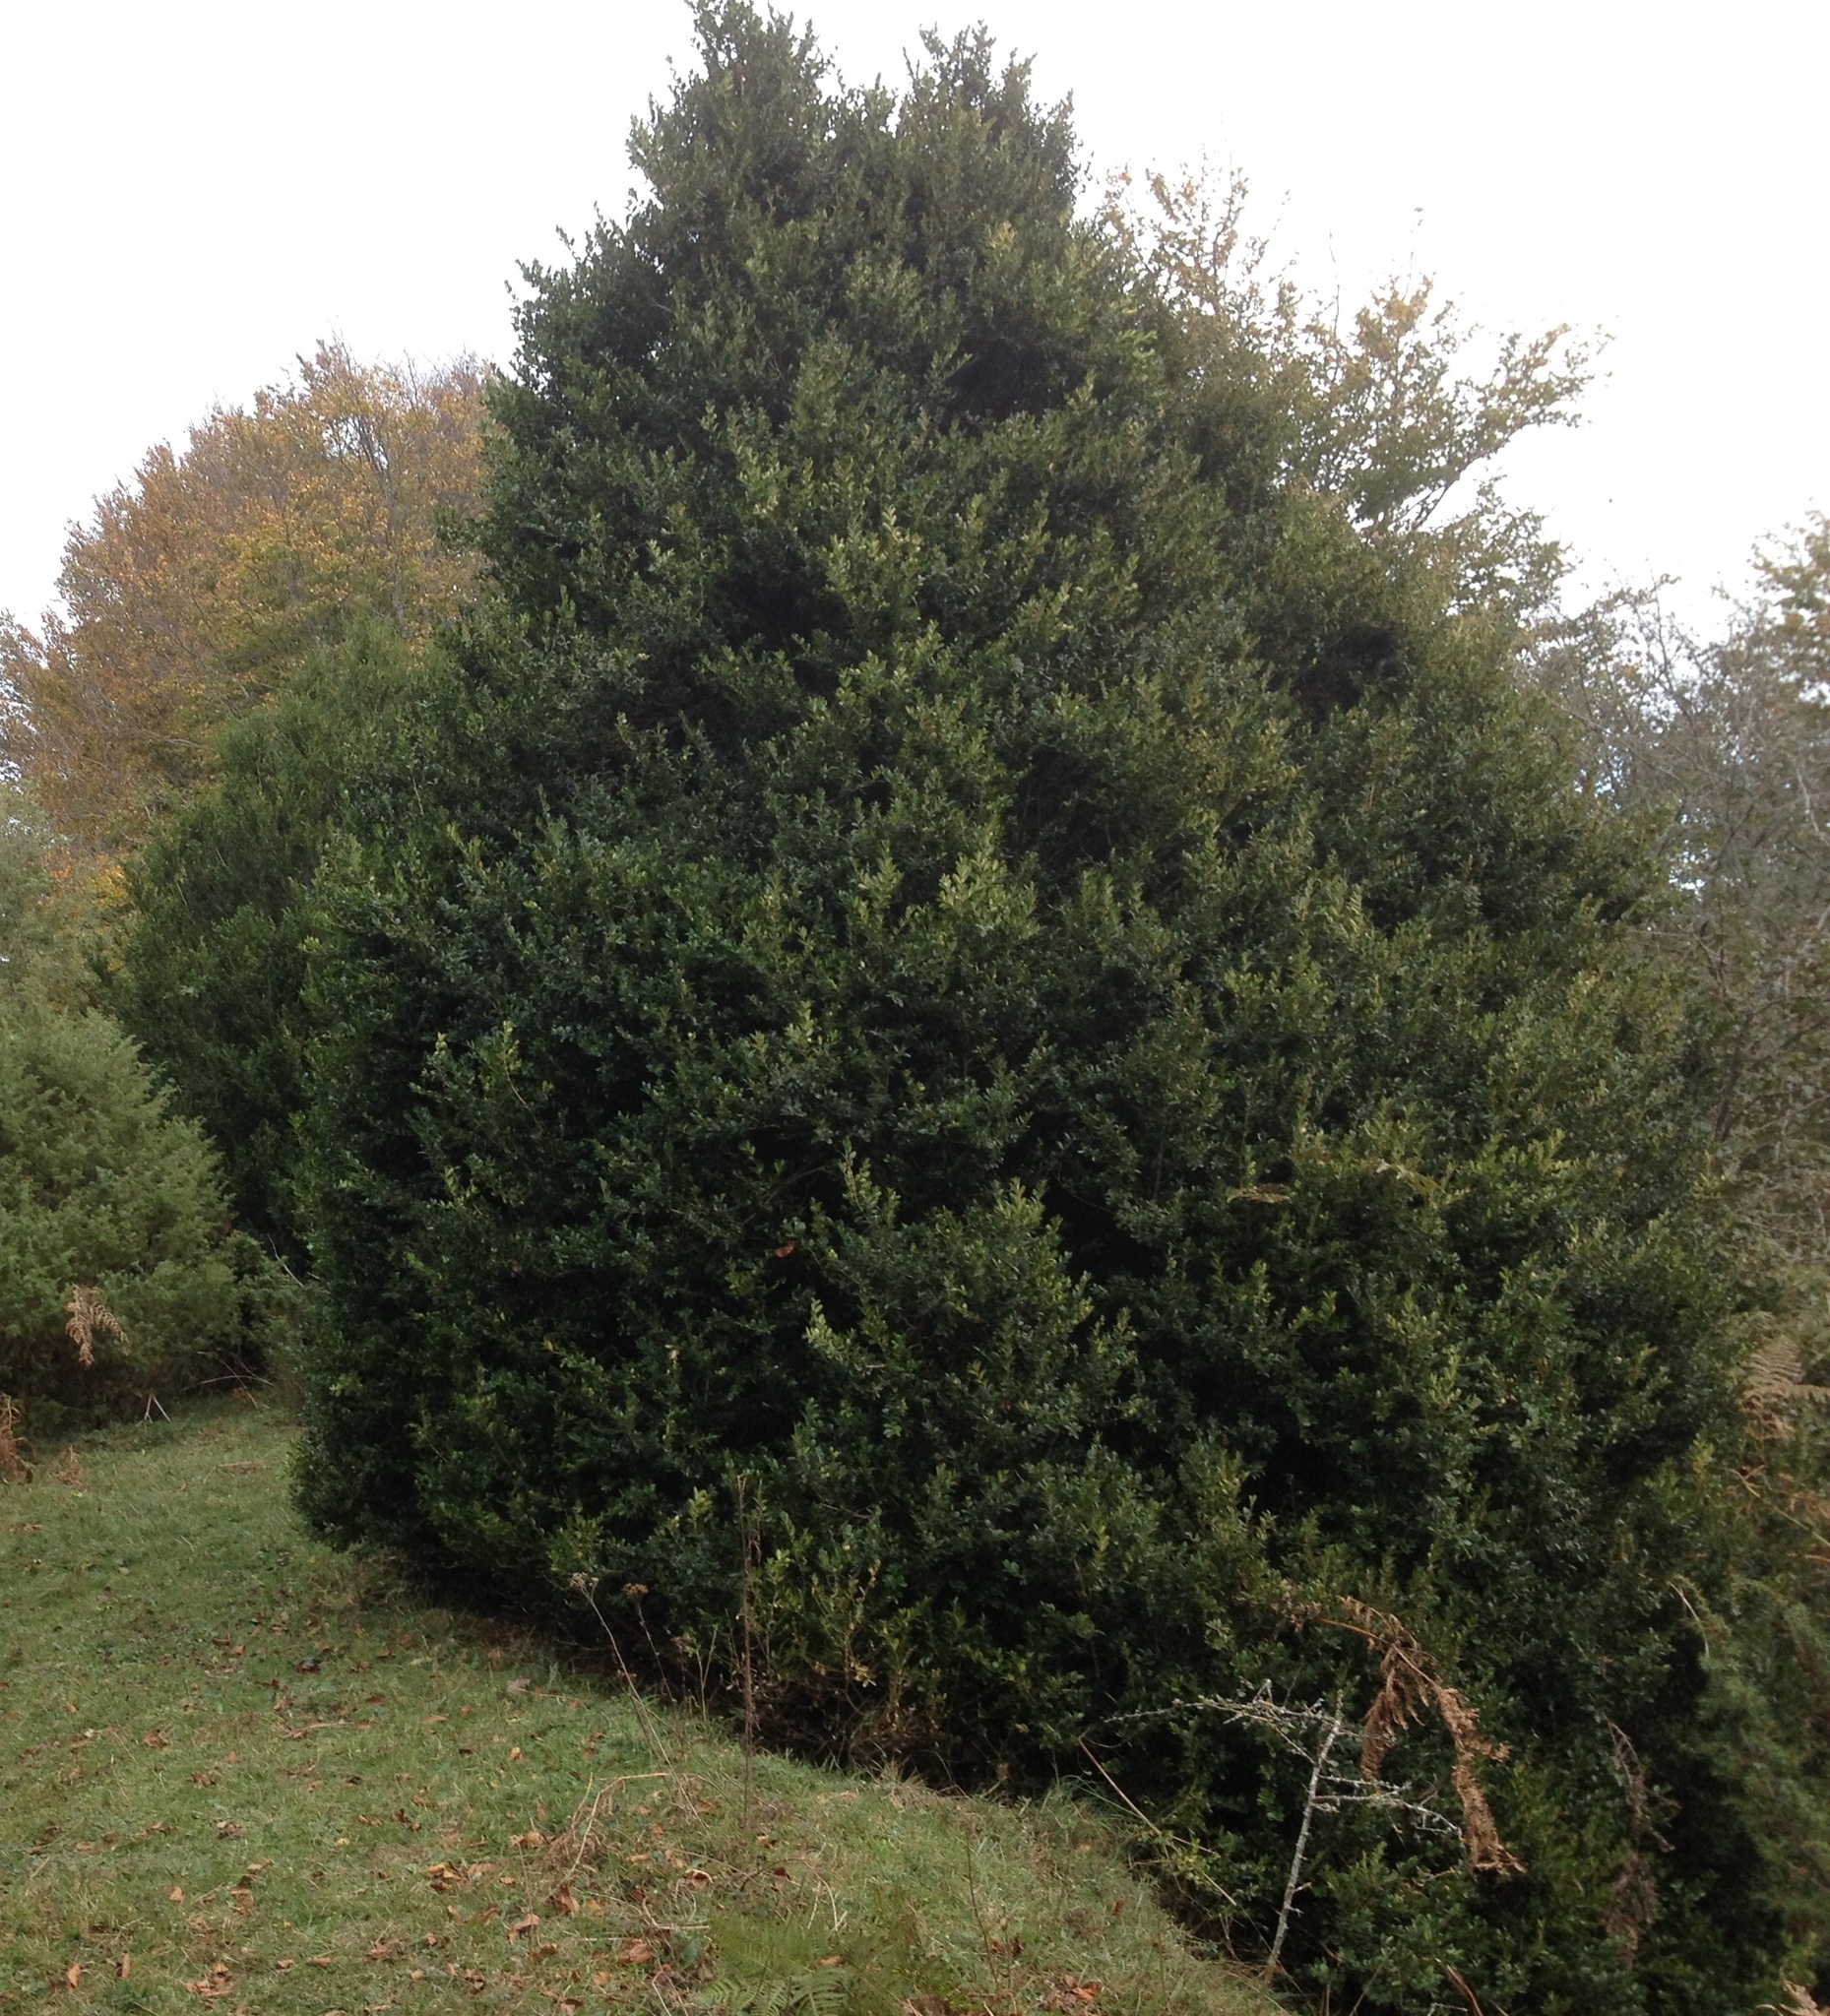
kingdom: Plantae
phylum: Tracheophyta
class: Magnoliopsida
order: Buxales
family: Buxaceae
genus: Buxus
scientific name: Buxus sempervirens
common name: Box
